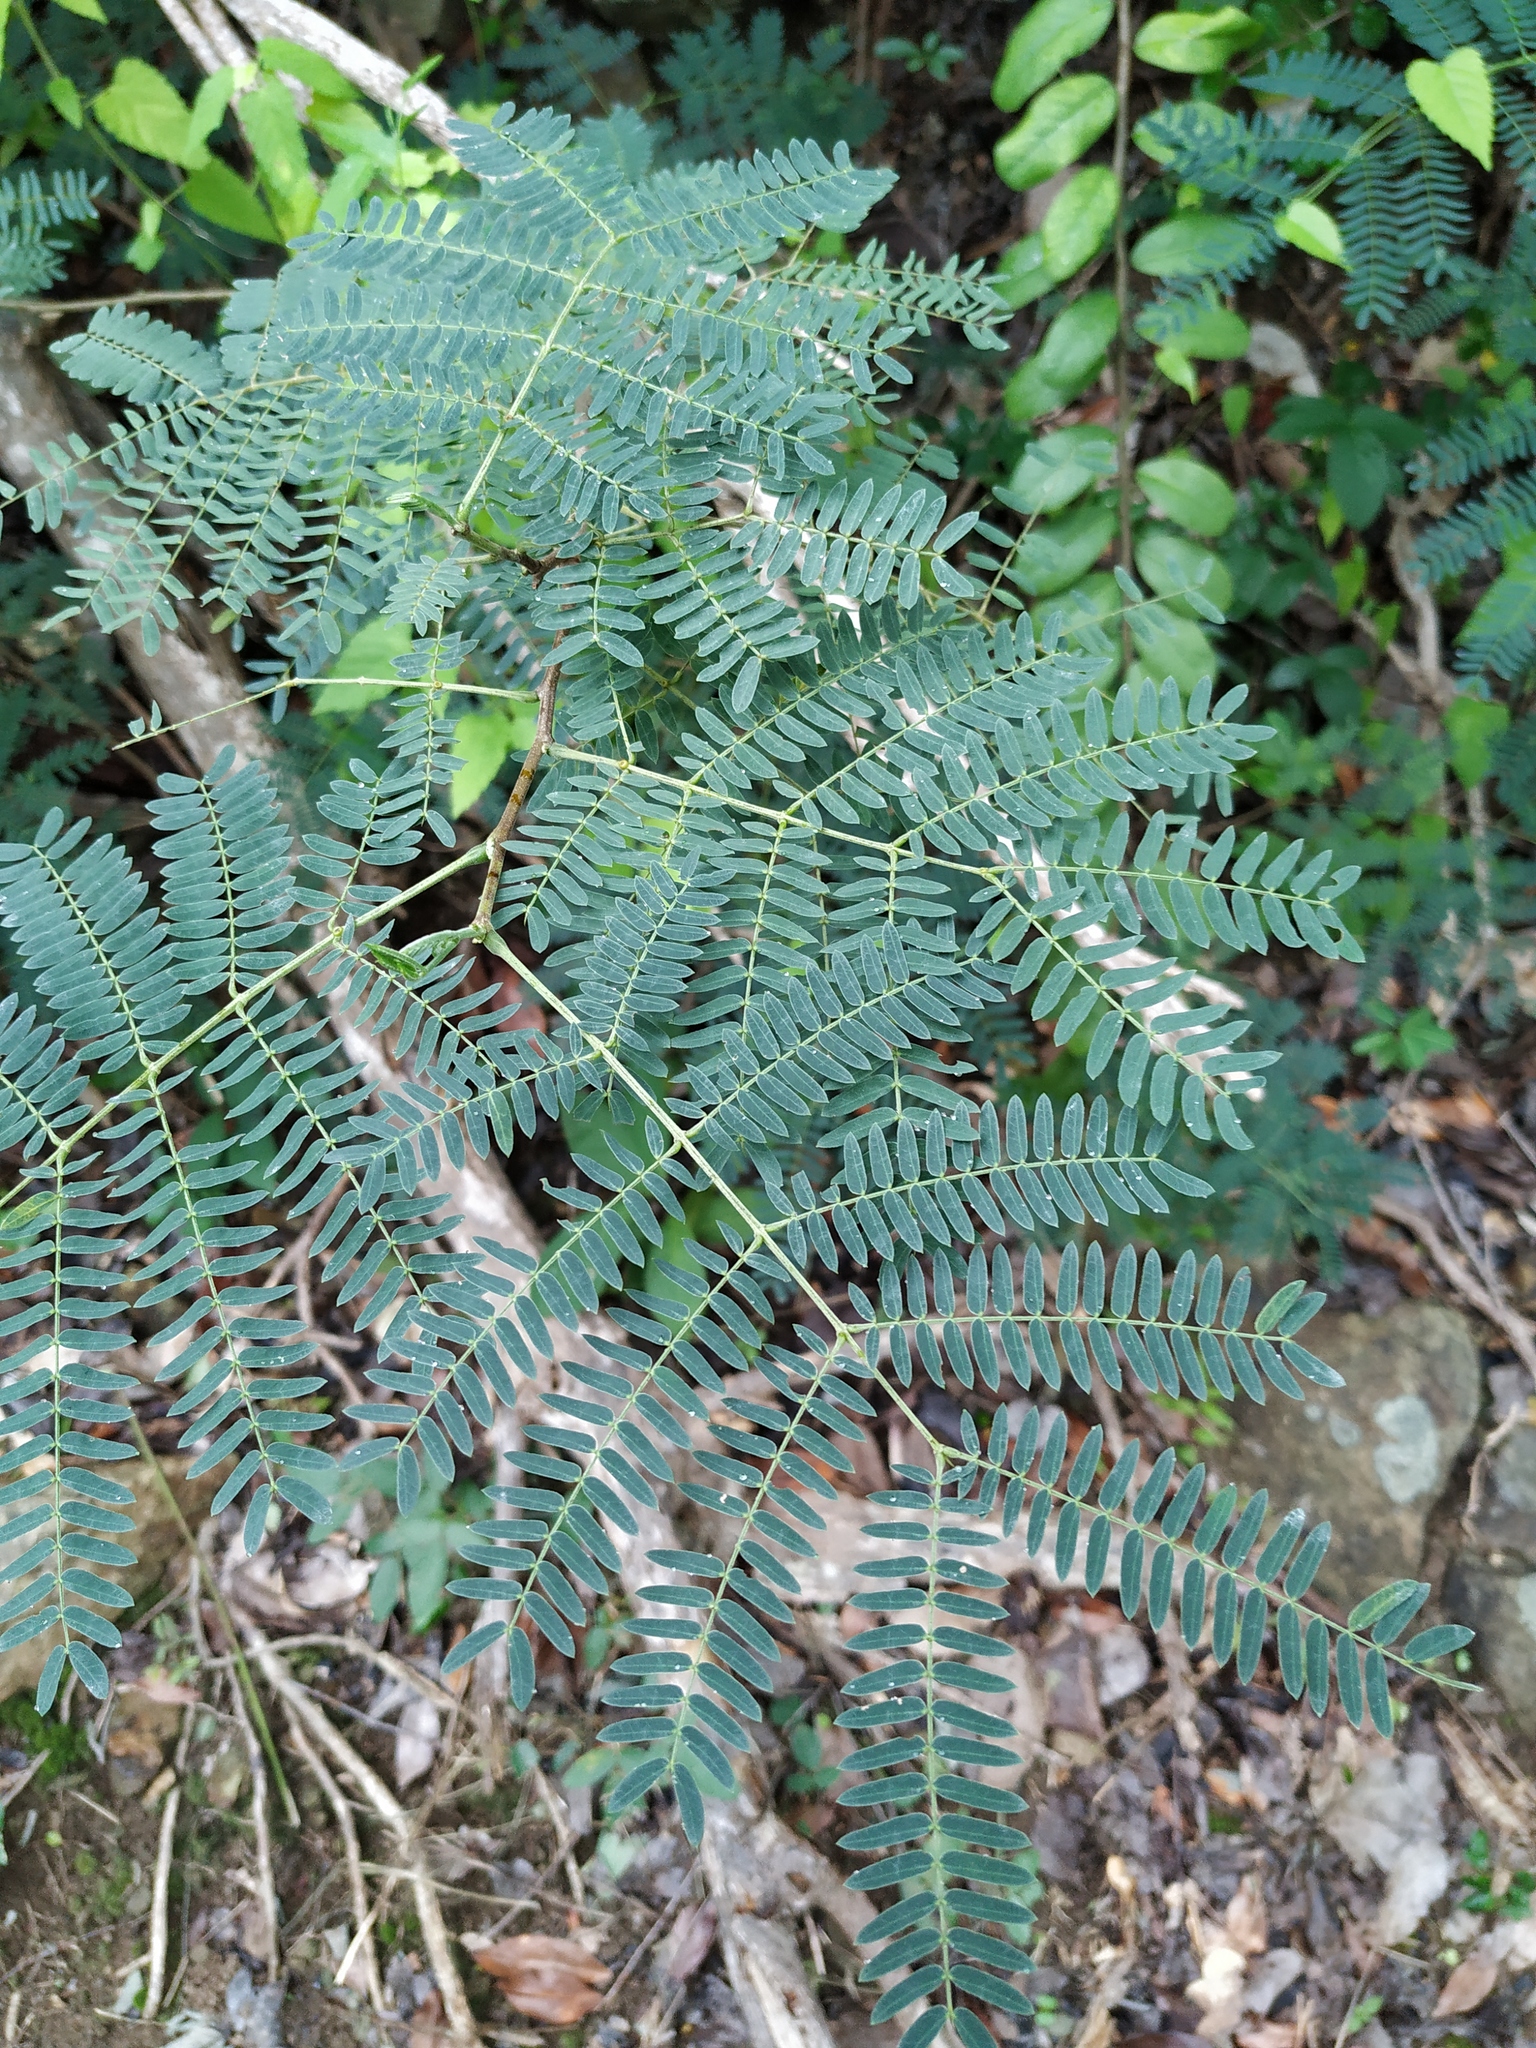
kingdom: Plantae
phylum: Tracheophyta
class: Magnoliopsida
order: Fabales
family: Fabaceae
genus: Leucaena
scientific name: Leucaena leucocephala
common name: White leadtree
